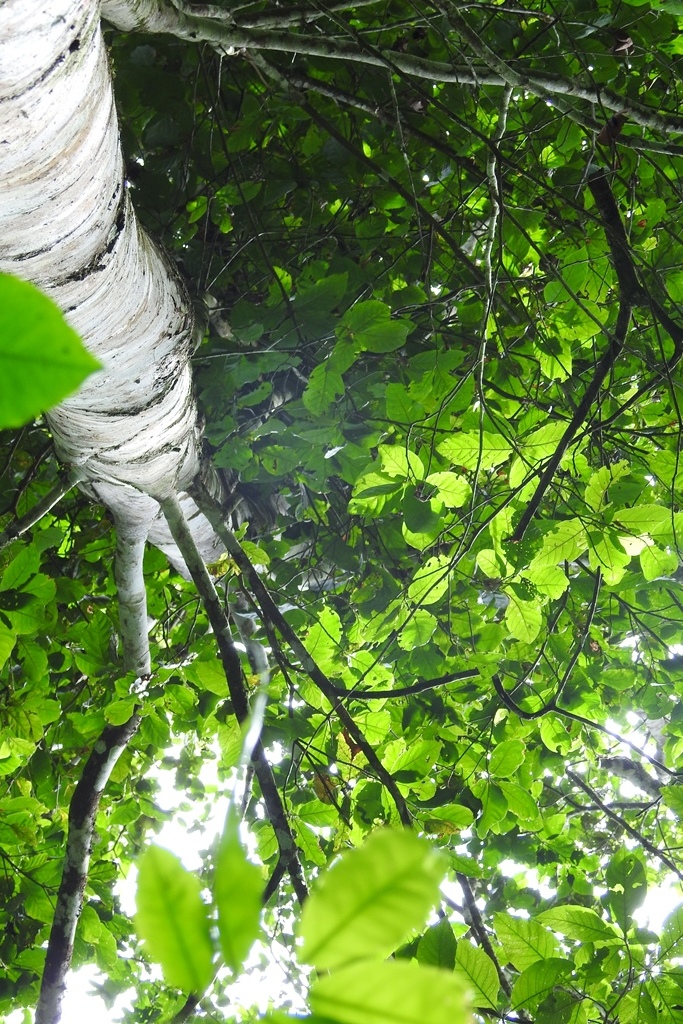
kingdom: Plantae
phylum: Tracheophyta
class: Magnoliopsida
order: Laurales
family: Lauraceae
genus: Ocotea
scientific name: Ocotea botrantha
